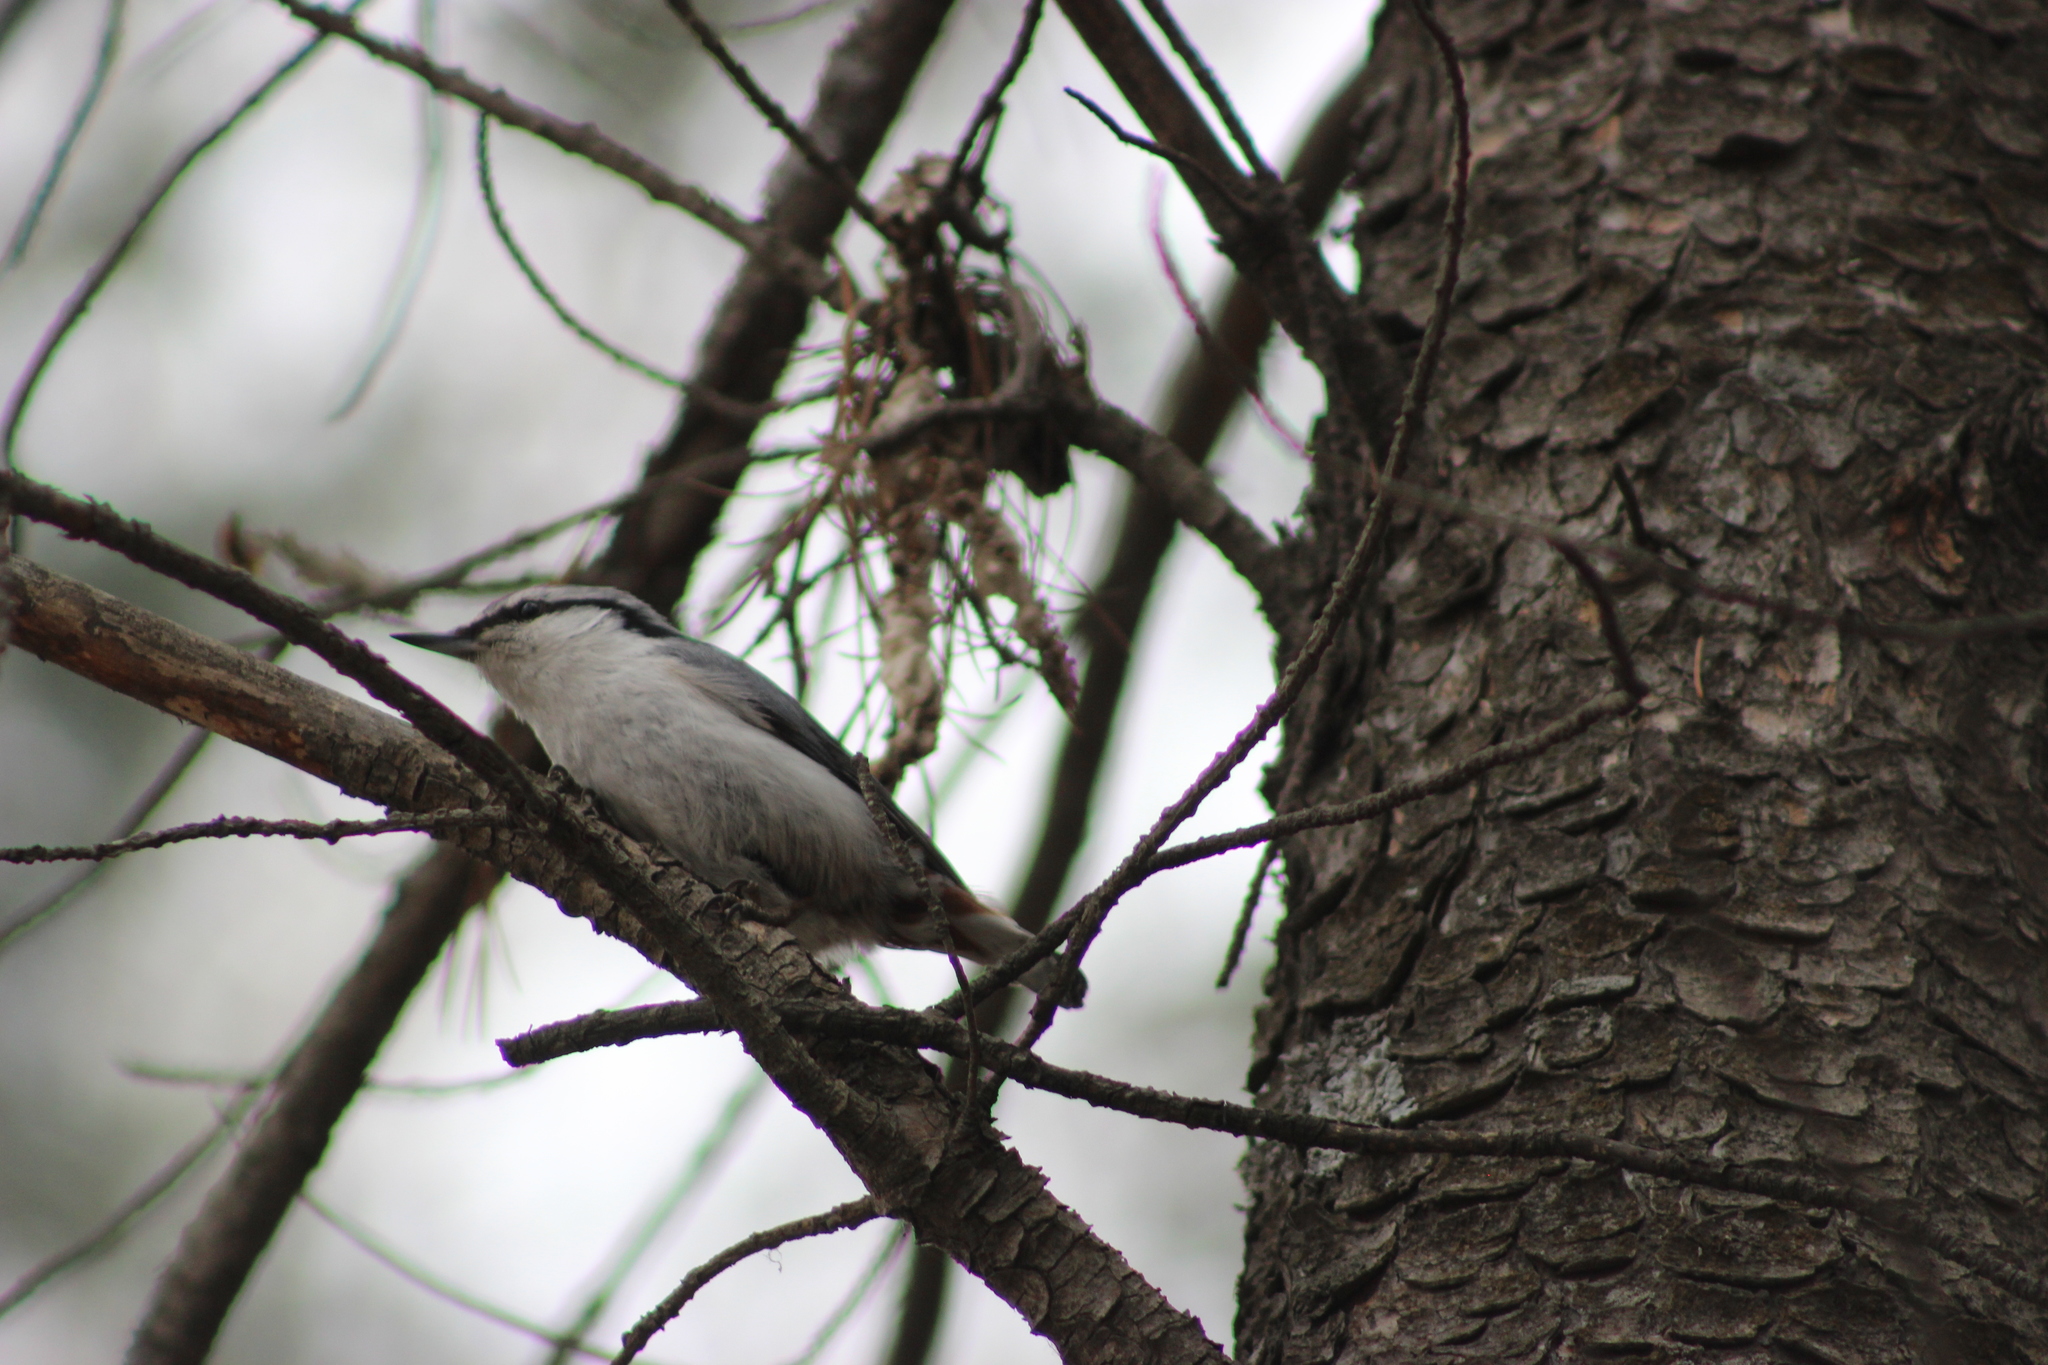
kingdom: Animalia
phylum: Chordata
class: Aves
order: Passeriformes
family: Sittidae
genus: Sitta
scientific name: Sitta europaea
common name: Eurasian nuthatch
